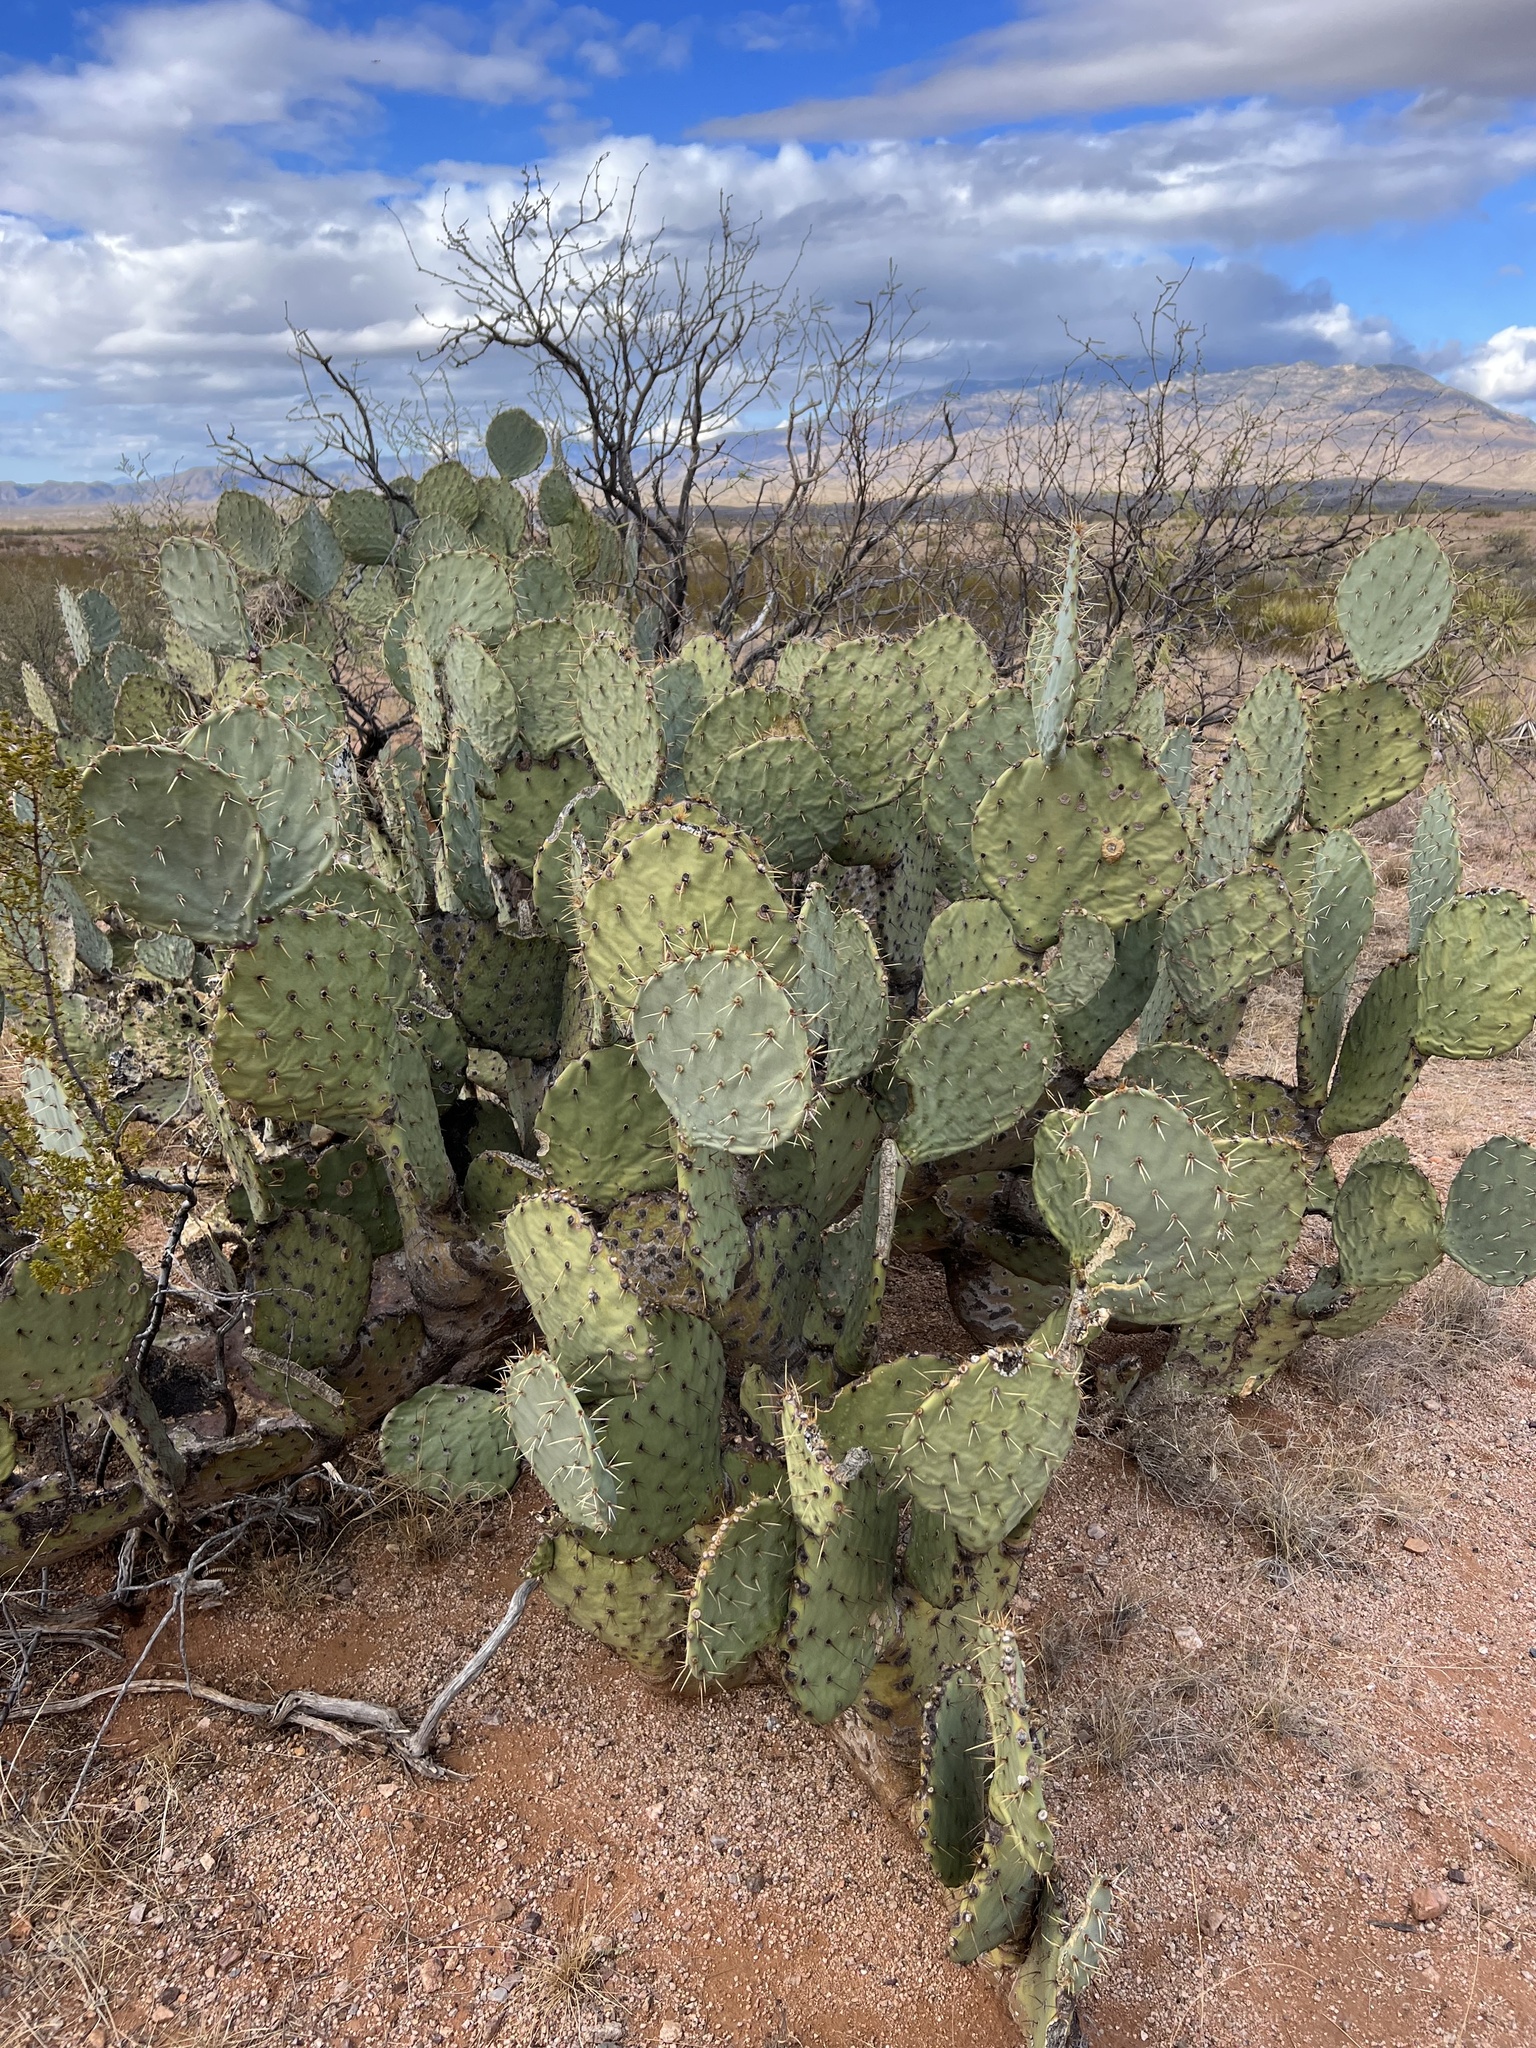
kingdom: Plantae
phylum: Tracheophyta
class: Magnoliopsida
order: Caryophyllales
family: Cactaceae
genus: Opuntia
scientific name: Opuntia engelmannii
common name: Cactus-apple
